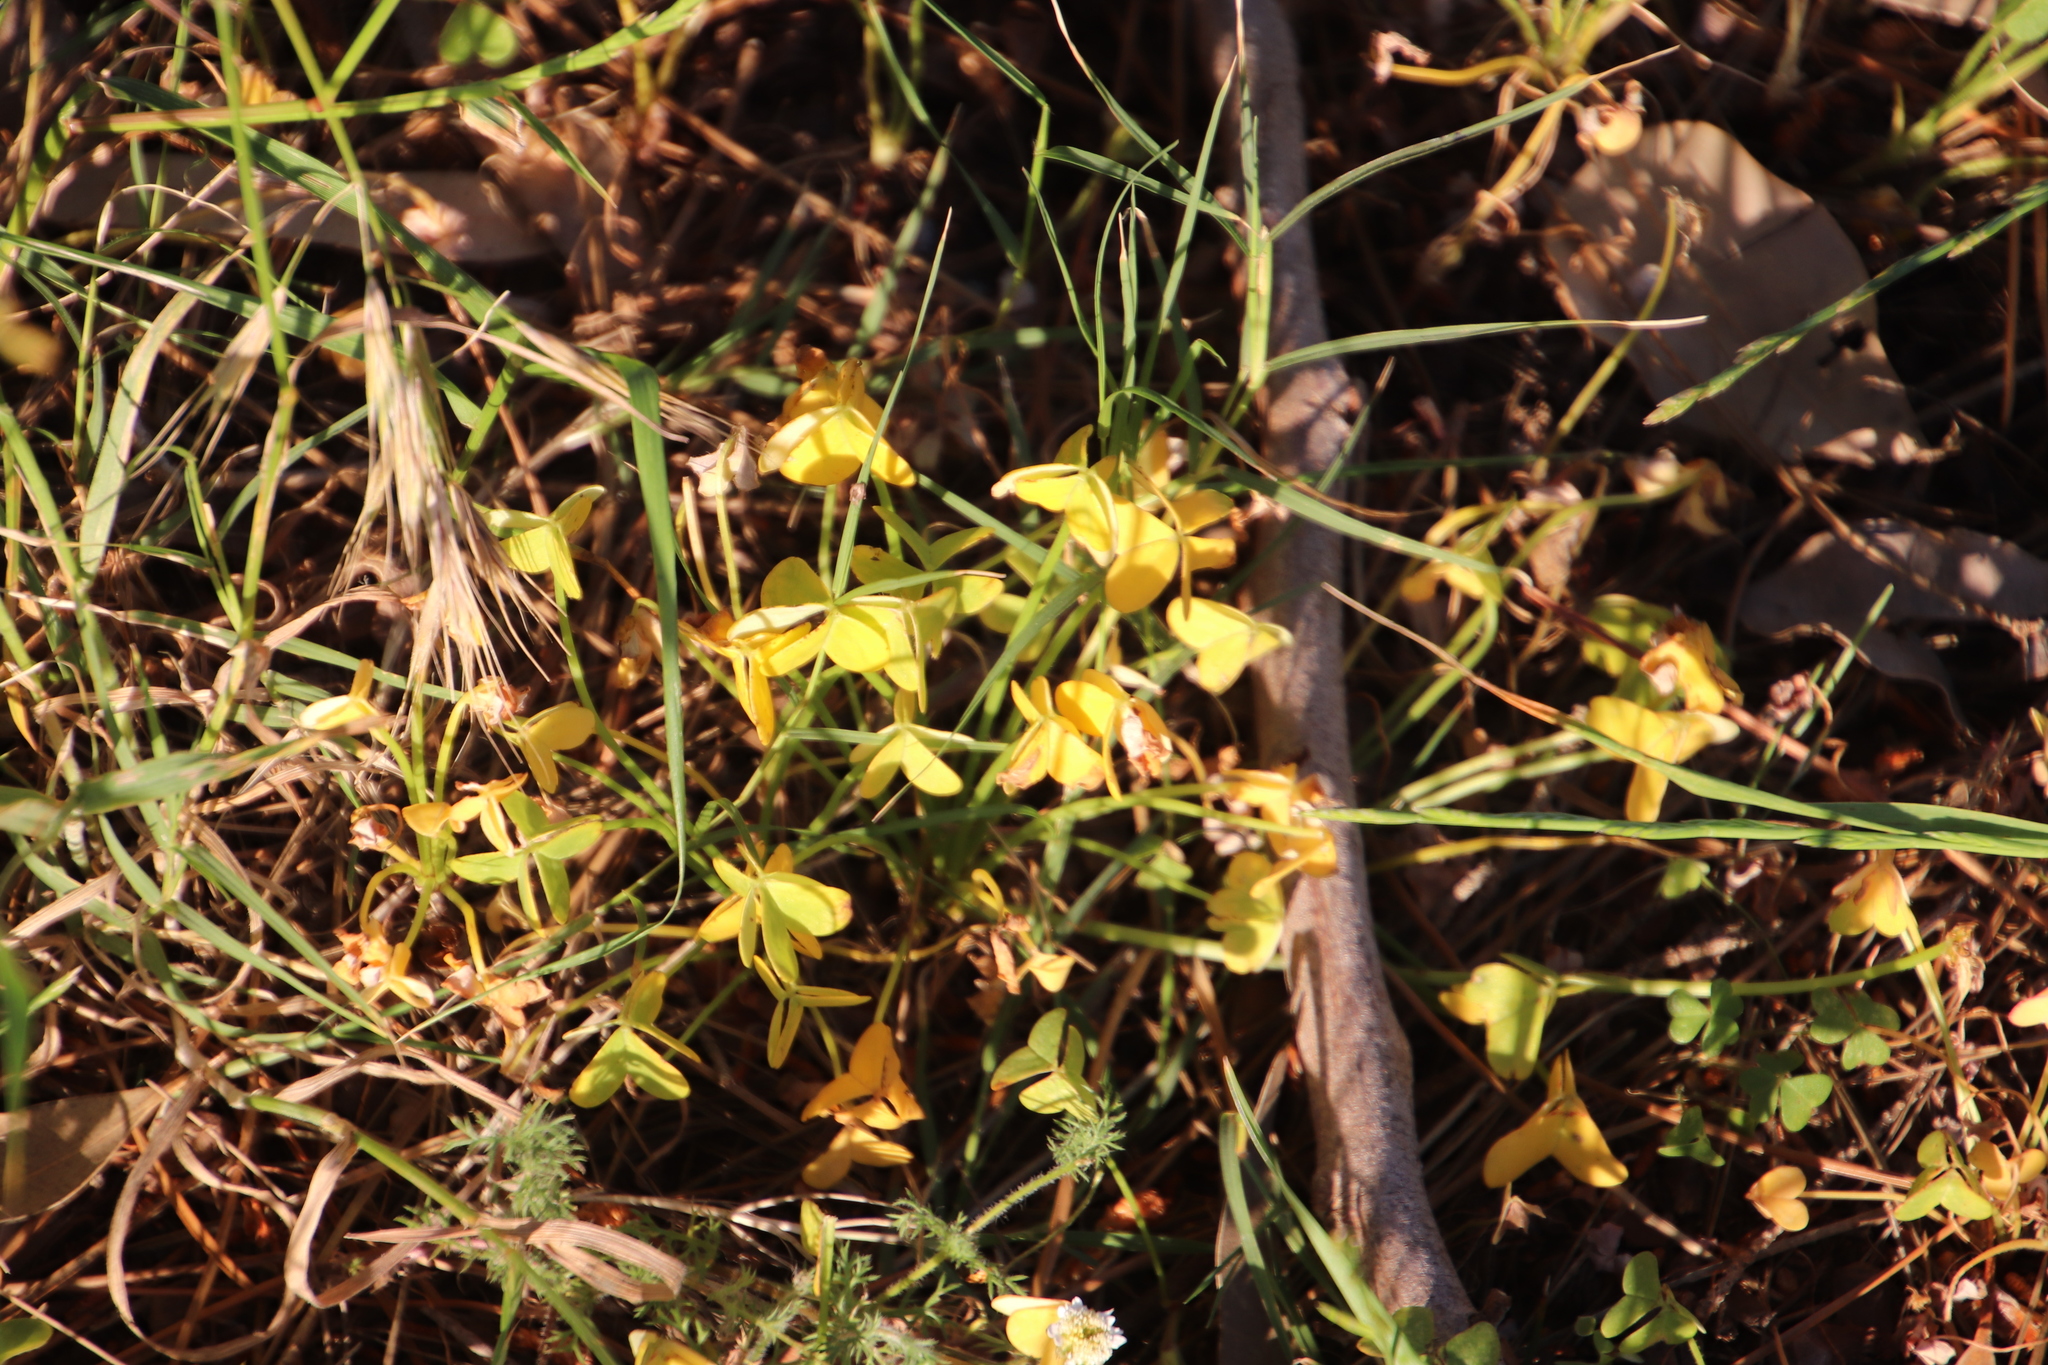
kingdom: Plantae
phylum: Tracheophyta
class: Magnoliopsida
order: Oxalidales
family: Oxalidaceae
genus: Oxalis
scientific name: Oxalis pes-caprae
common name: Bermuda-buttercup
